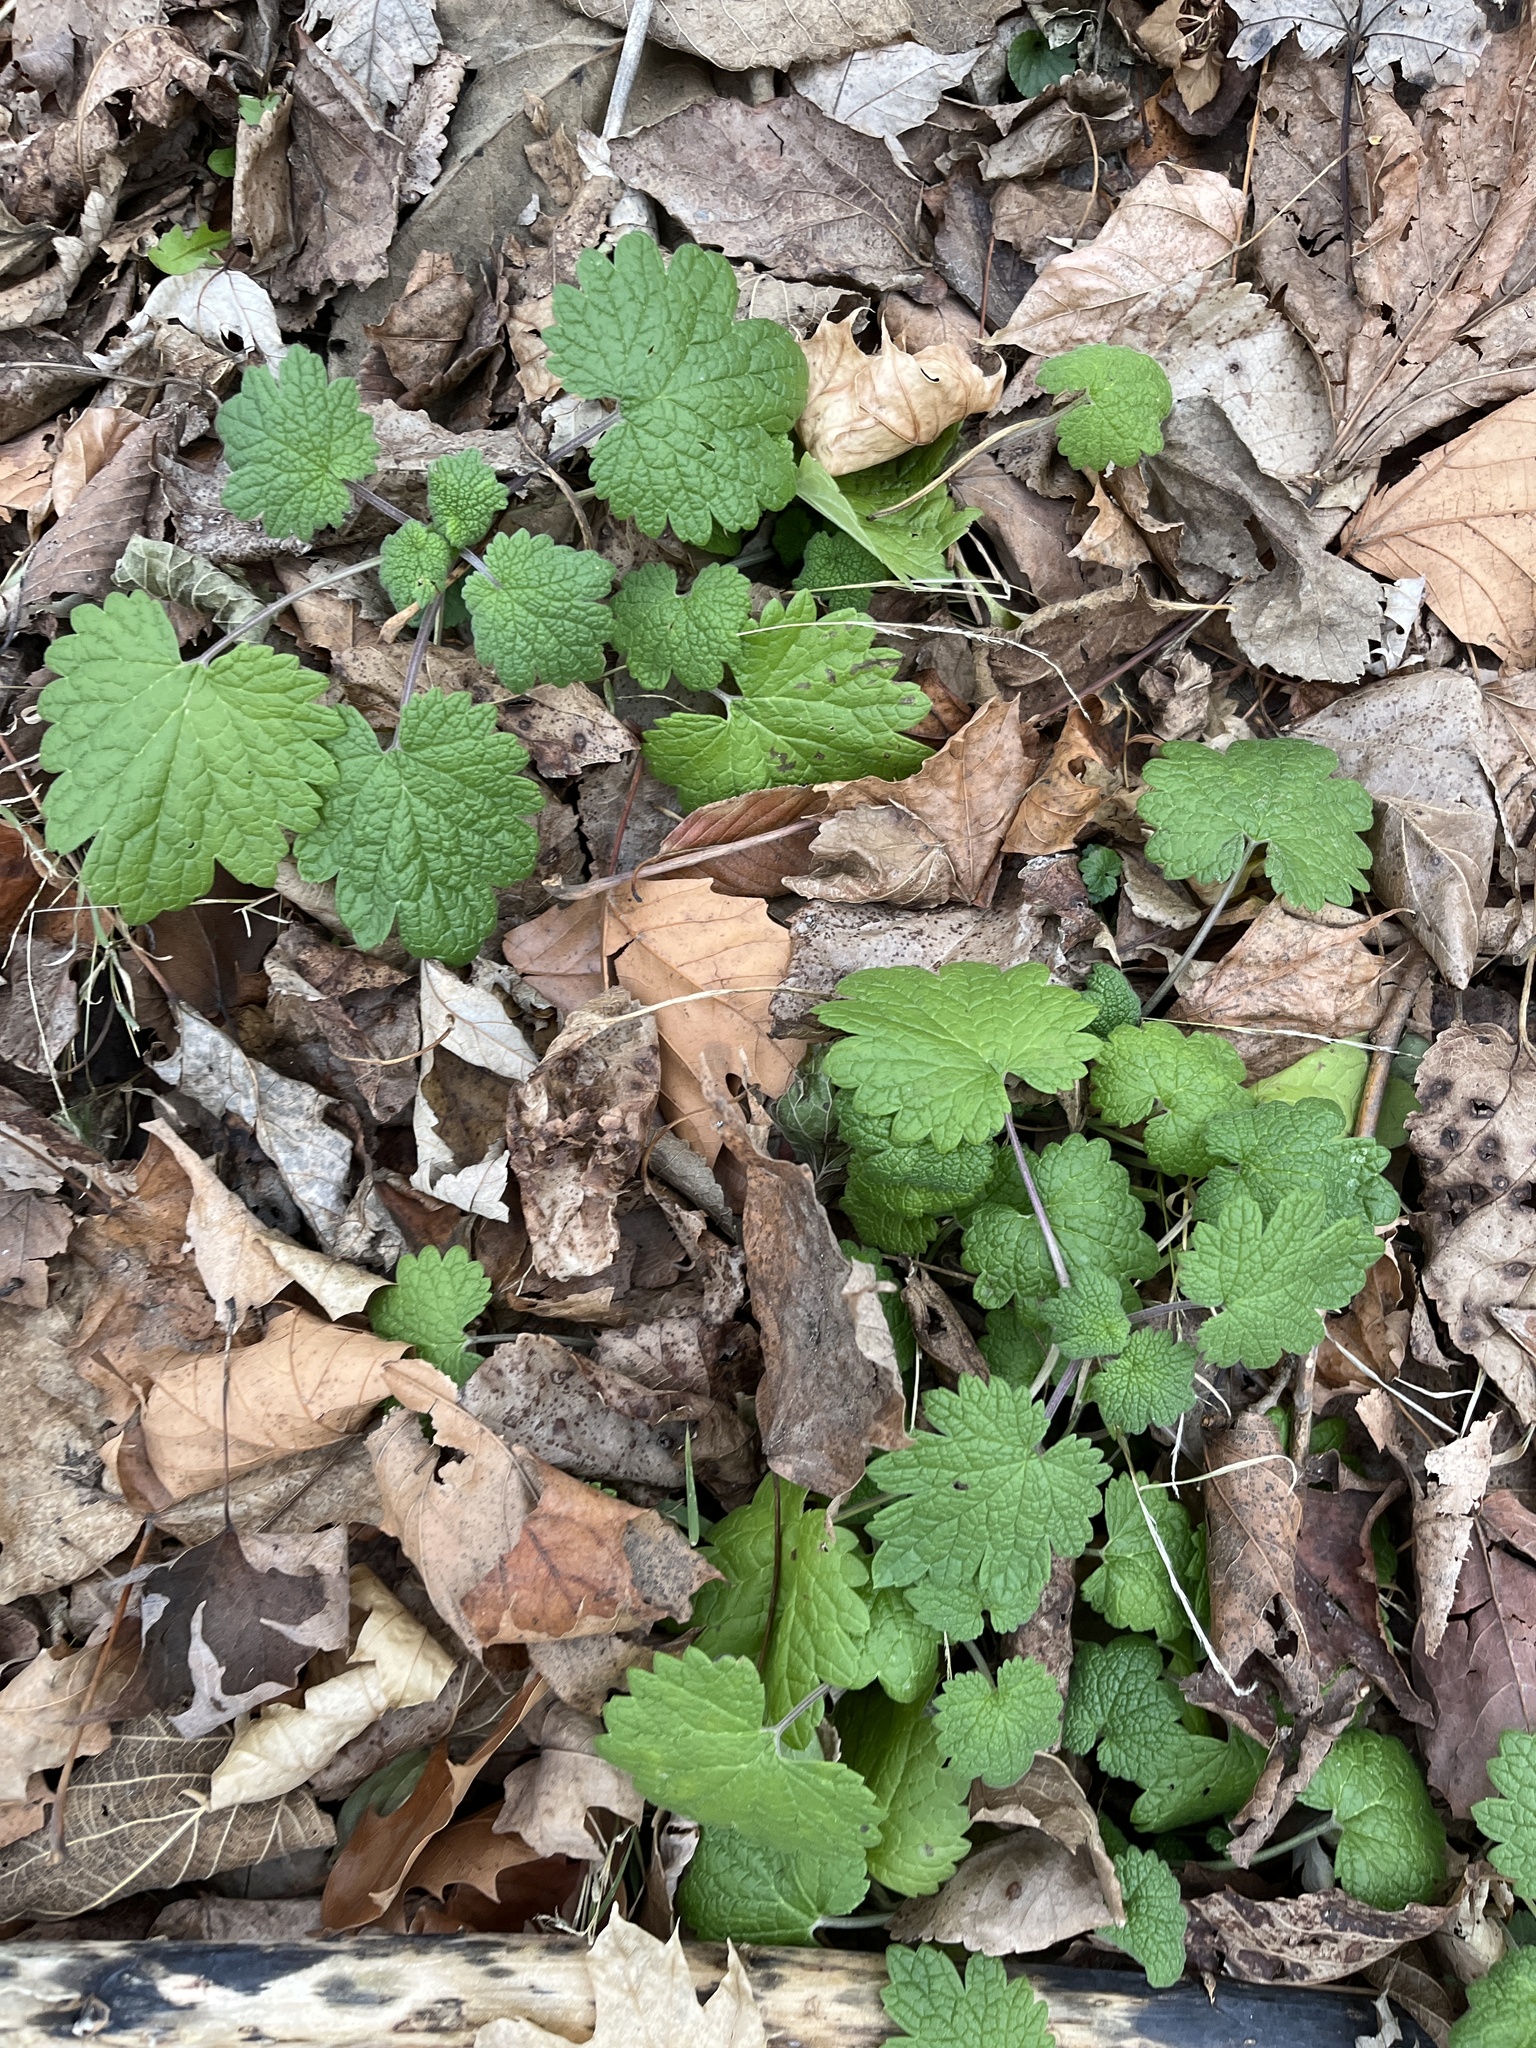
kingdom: Plantae
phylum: Tracheophyta
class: Magnoliopsida
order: Lamiales
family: Lamiaceae
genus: Leonurus
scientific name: Leonurus cardiaca
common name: Motherwort
